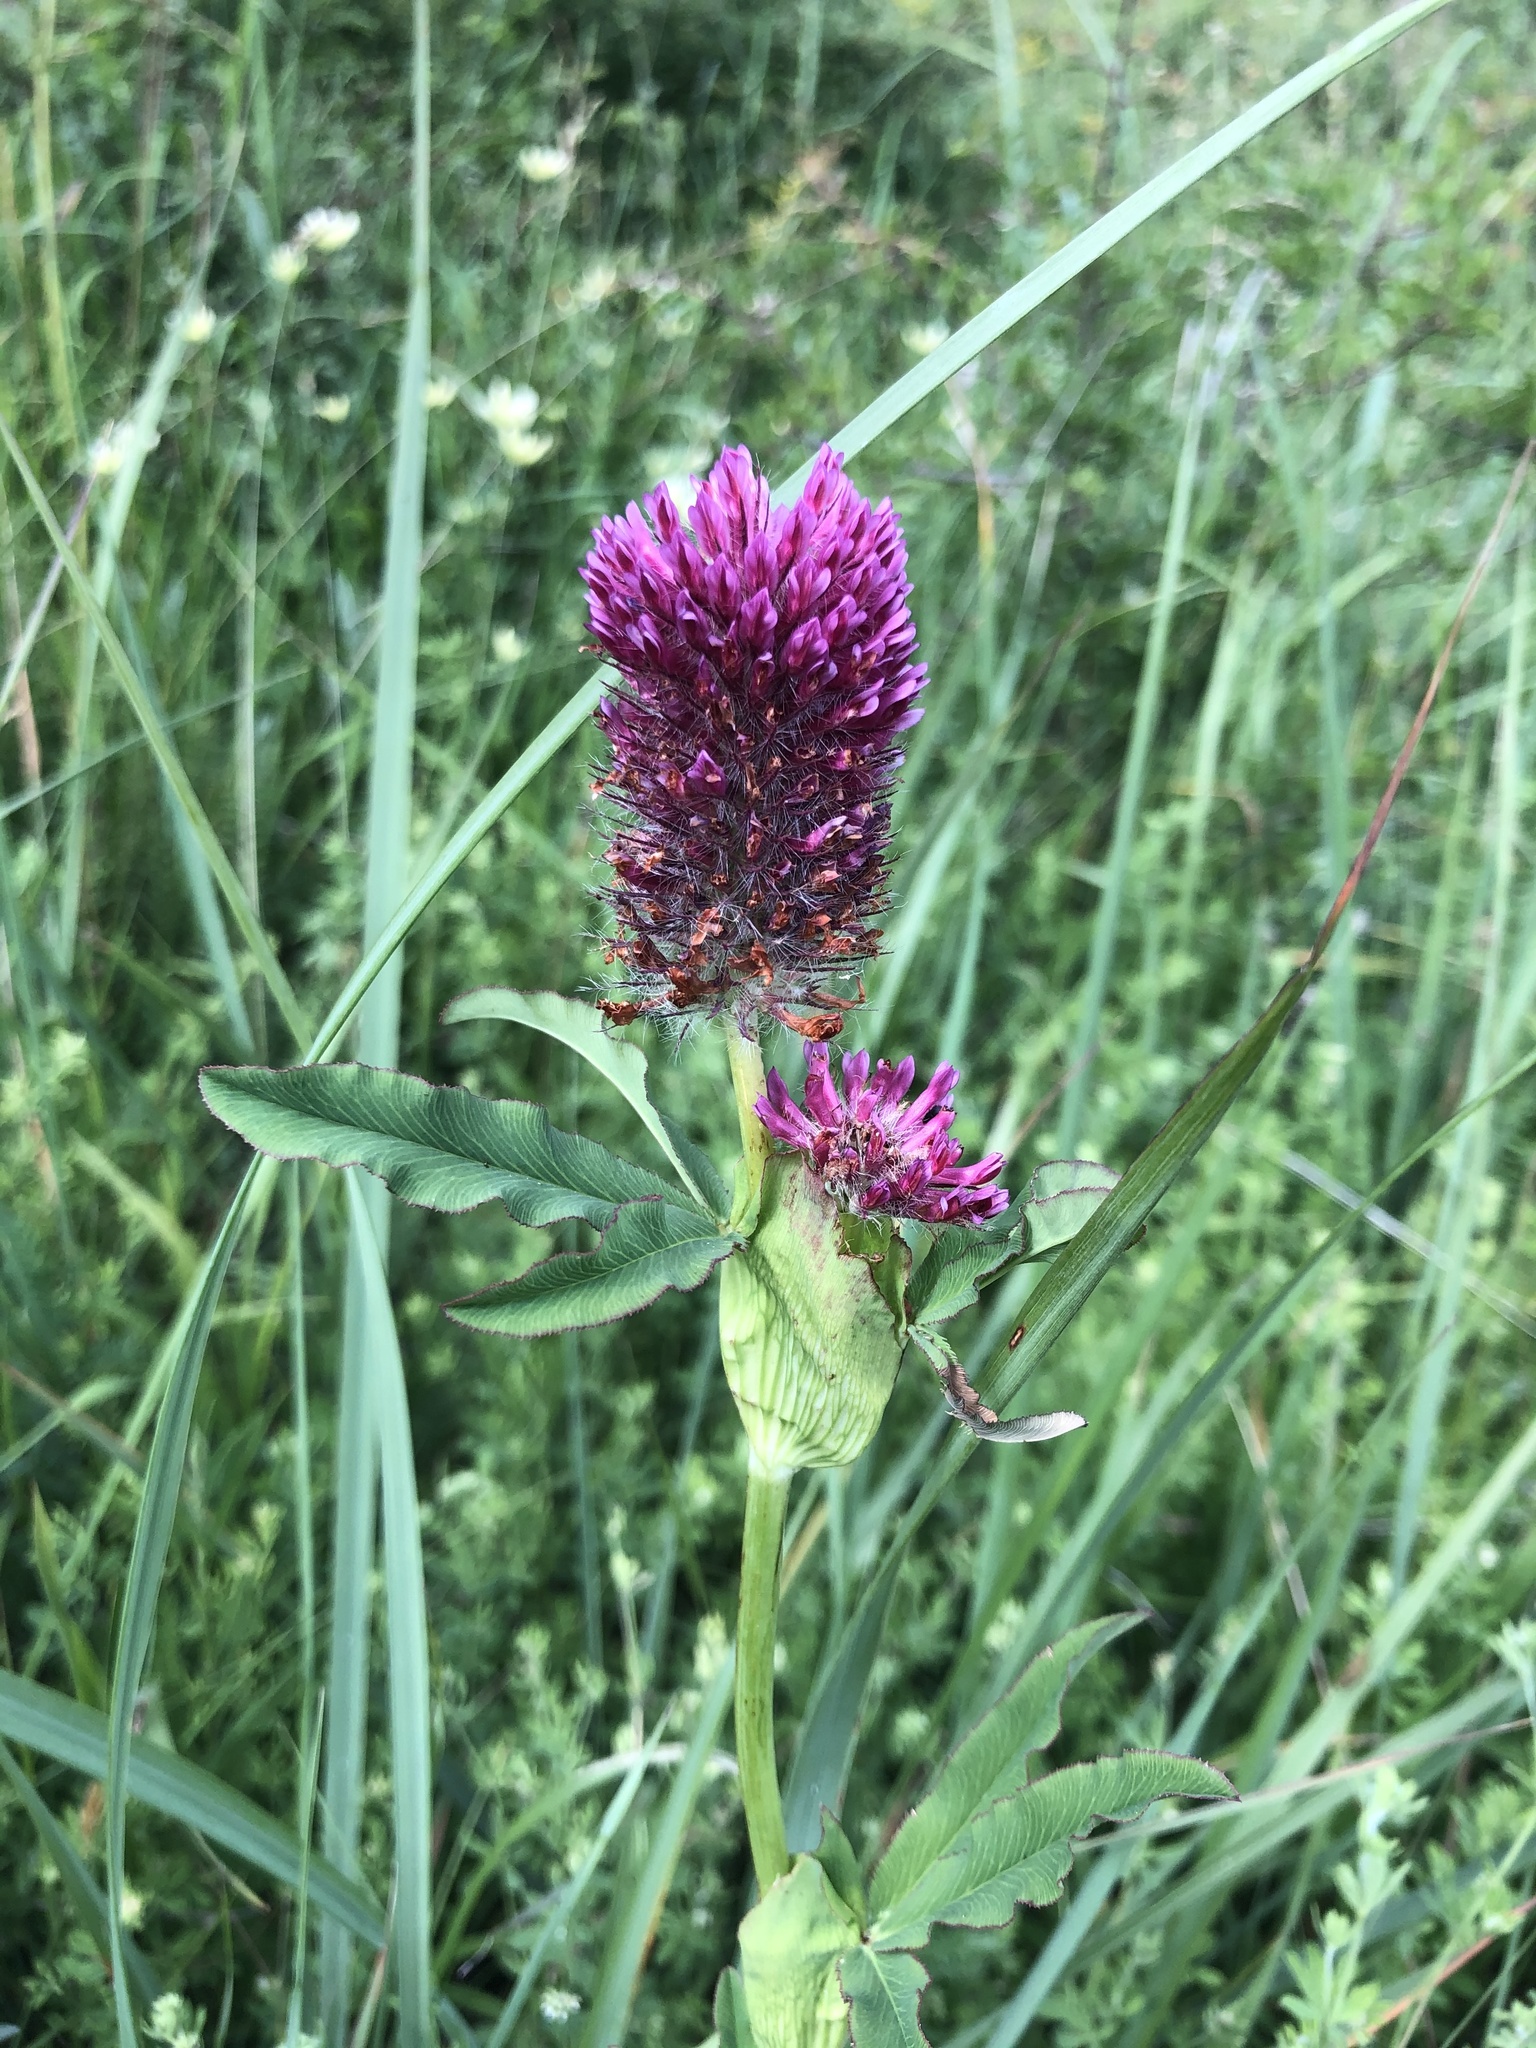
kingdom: Plantae
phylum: Tracheophyta
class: Magnoliopsida
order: Fabales
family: Fabaceae
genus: Trifolium
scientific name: Trifolium rubens
